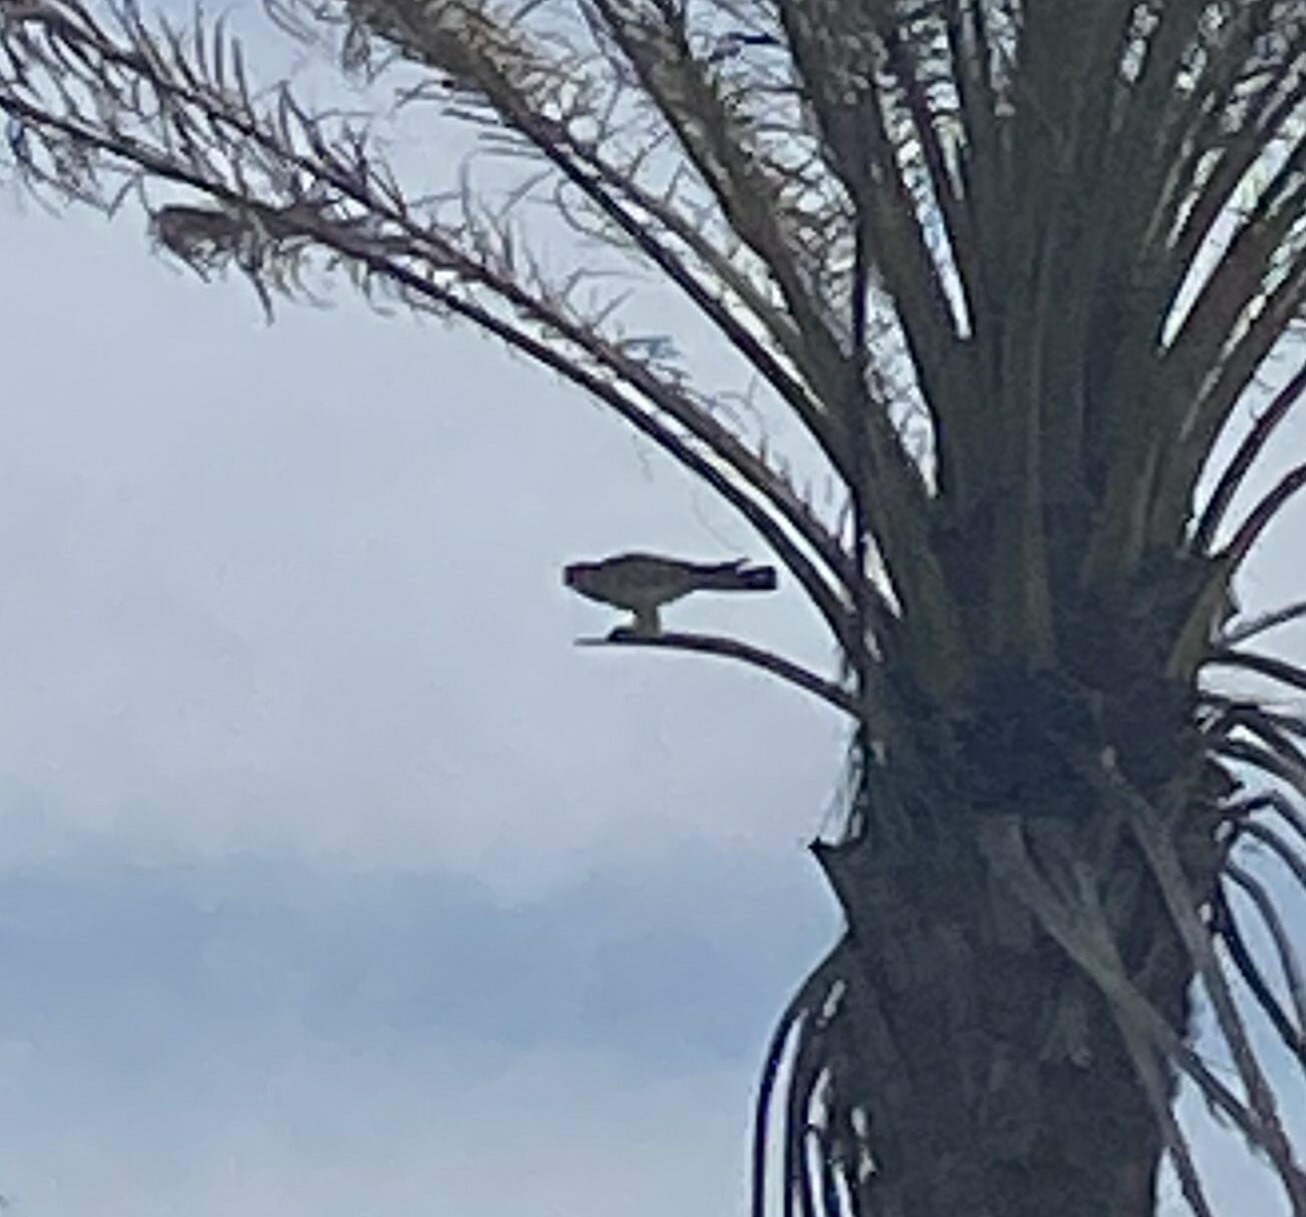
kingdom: Animalia
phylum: Chordata
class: Aves
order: Falconiformes
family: Falconidae
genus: Falco
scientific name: Falco tinnunculus
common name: Common kestrel
